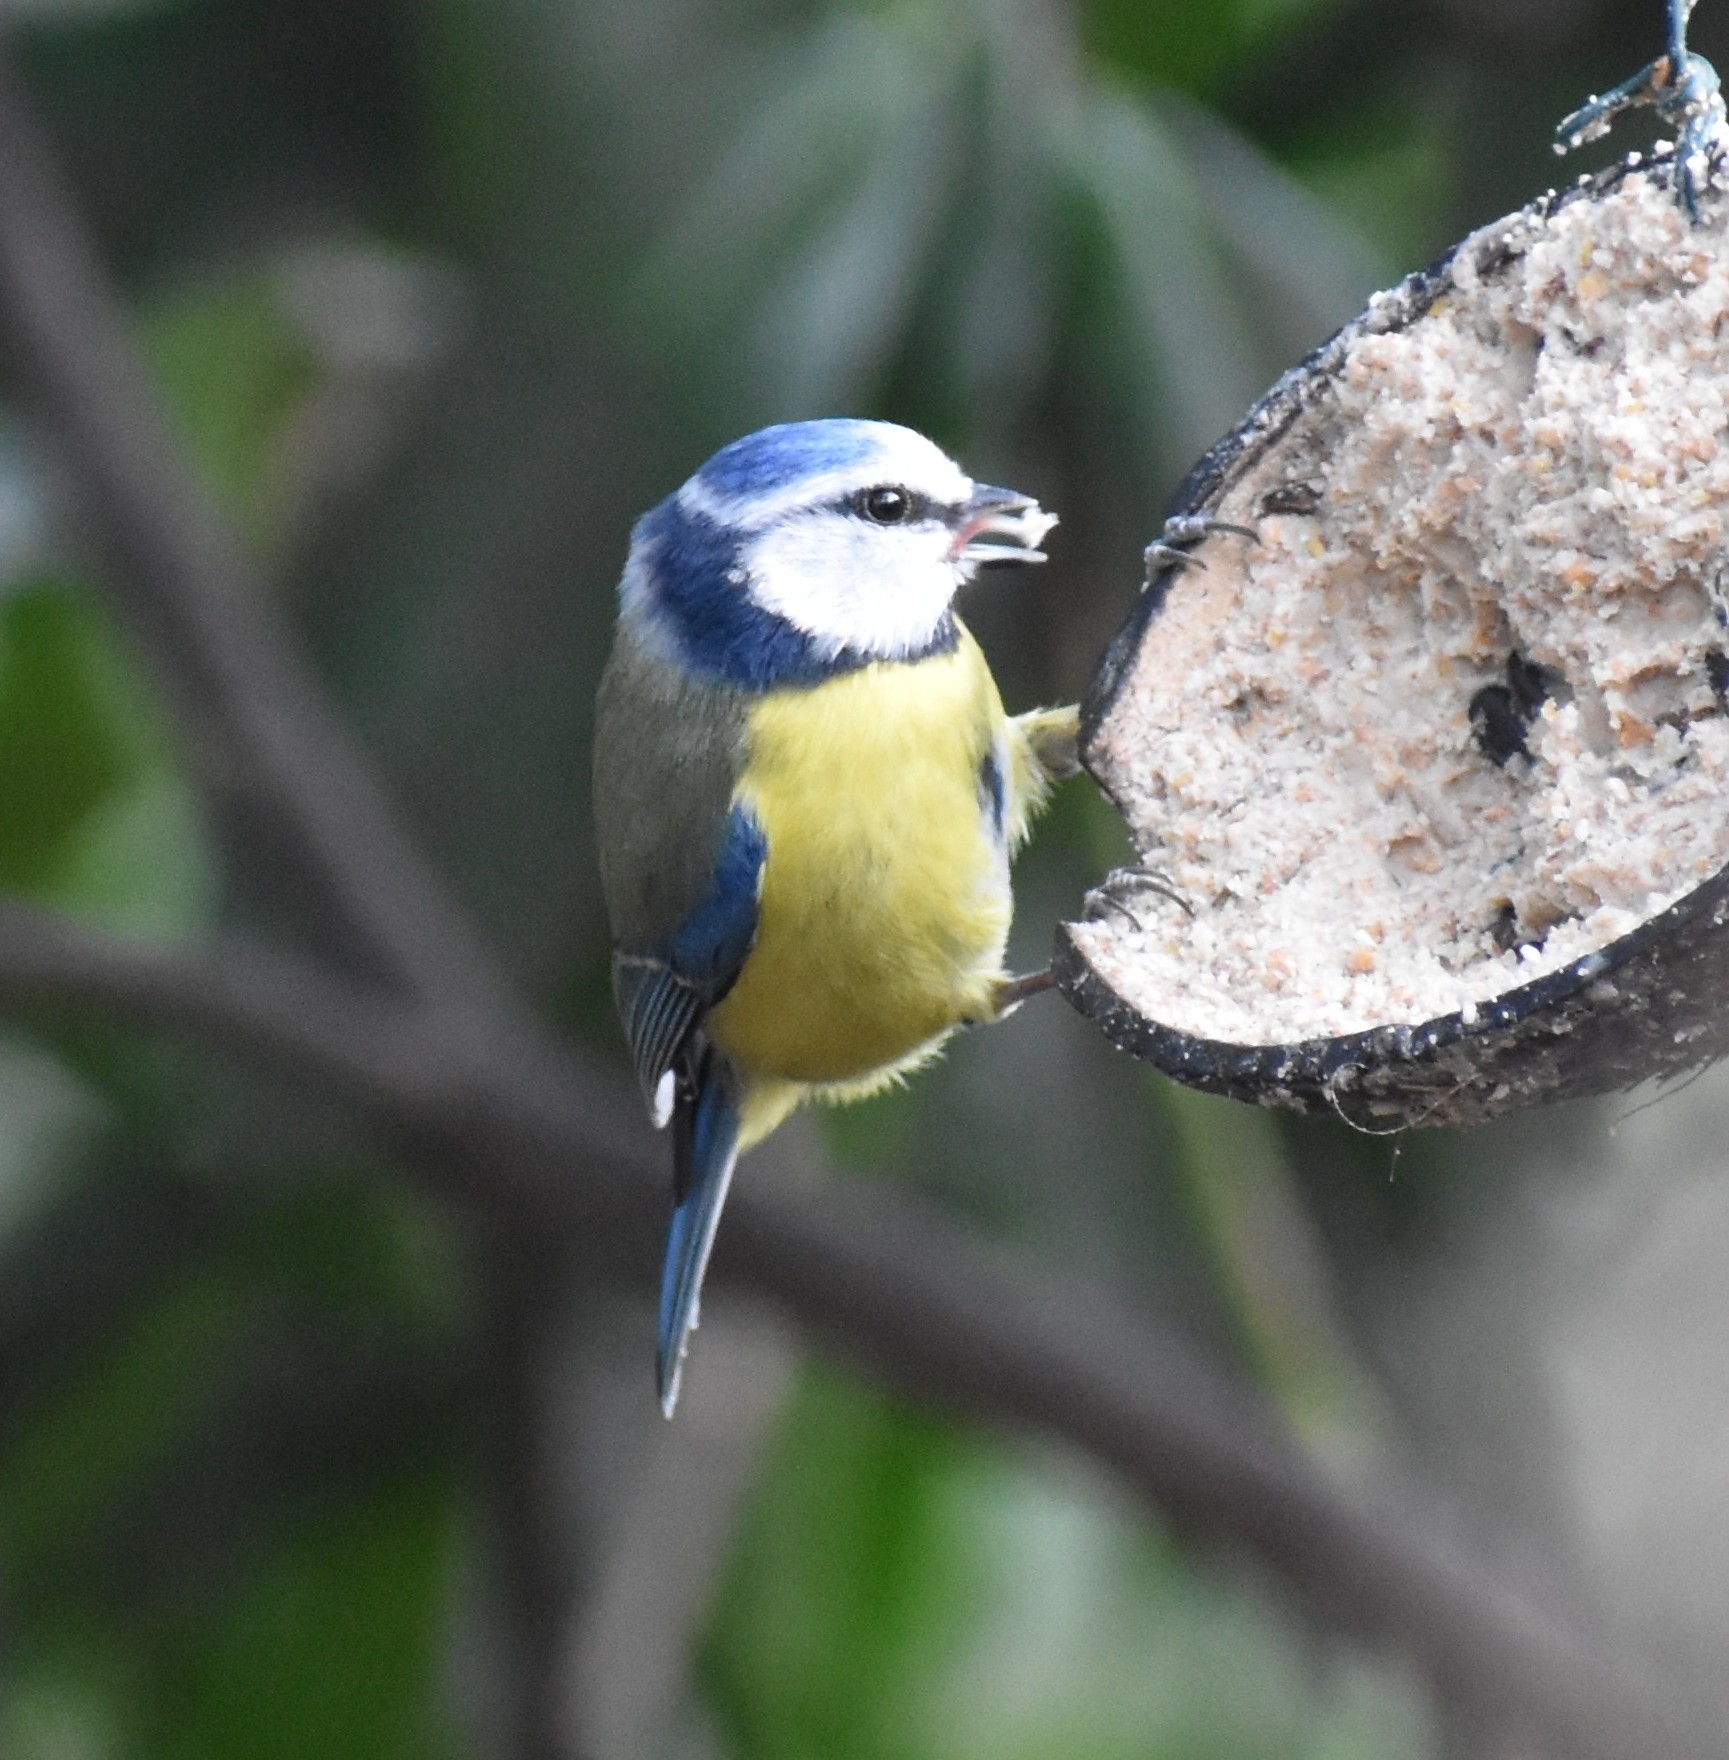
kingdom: Animalia
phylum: Chordata
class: Aves
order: Passeriformes
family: Paridae
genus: Cyanistes
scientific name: Cyanistes caeruleus
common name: Eurasian blue tit
